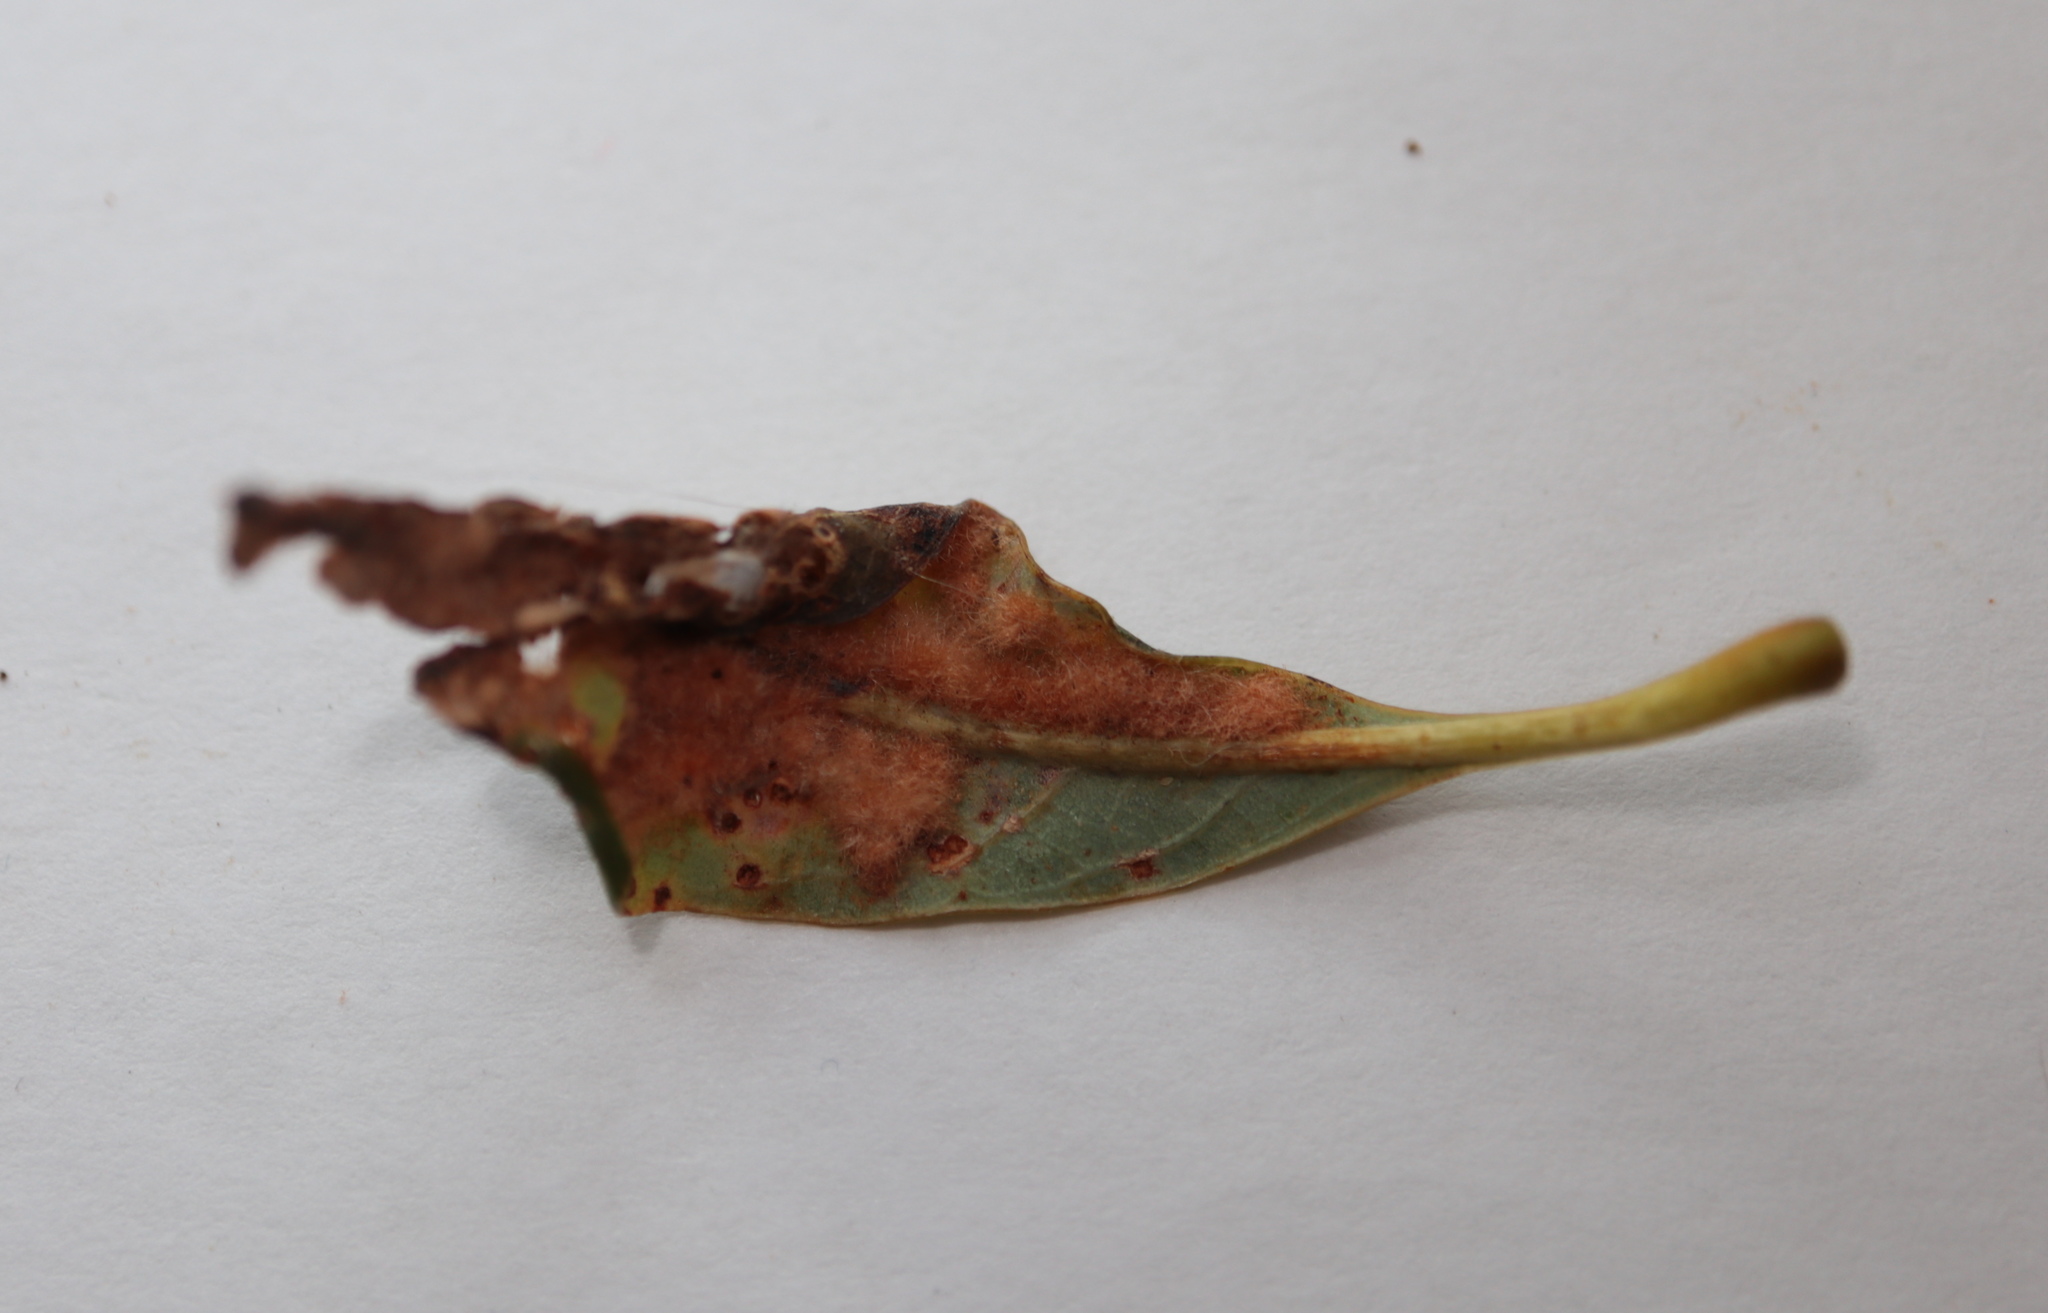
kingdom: Animalia
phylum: Arthropoda
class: Insecta
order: Hymenoptera
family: Cynipidae
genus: Neuroterus
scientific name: Neuroterus quercusverrucarum
